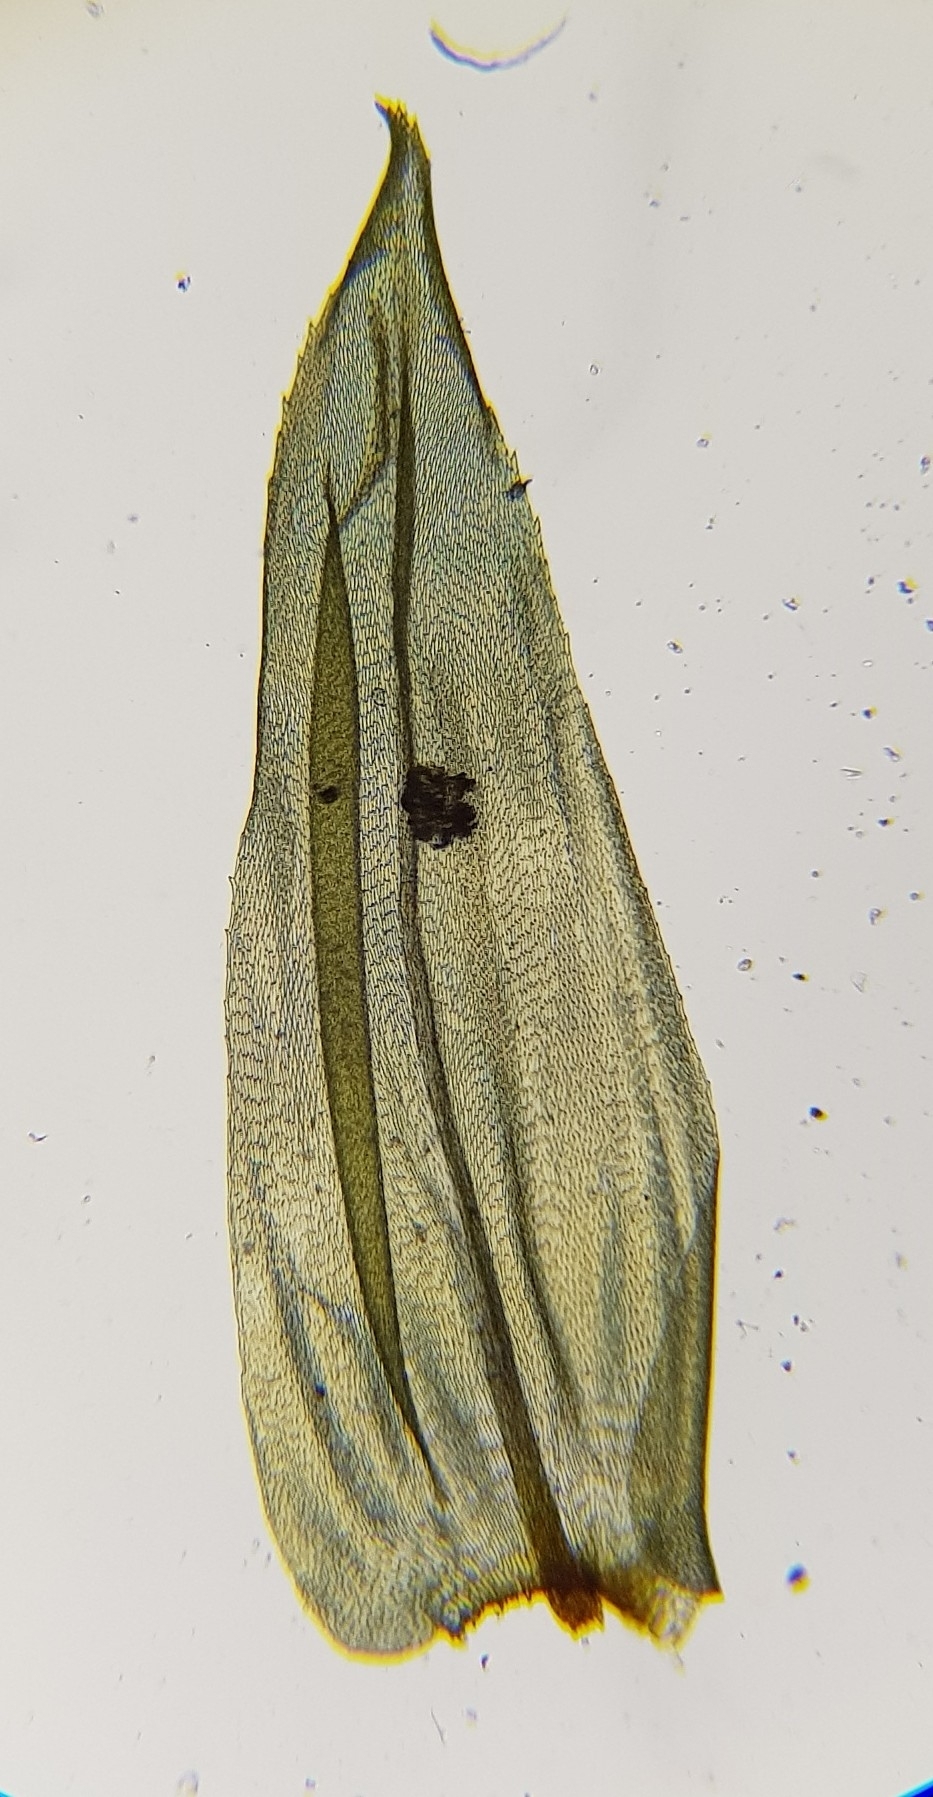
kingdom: Plantae
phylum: Bryophyta
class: Bryopsida
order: Hypnales
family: Climaciaceae
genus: Climacium
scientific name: Climacium dendroides
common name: Northern tree moss
